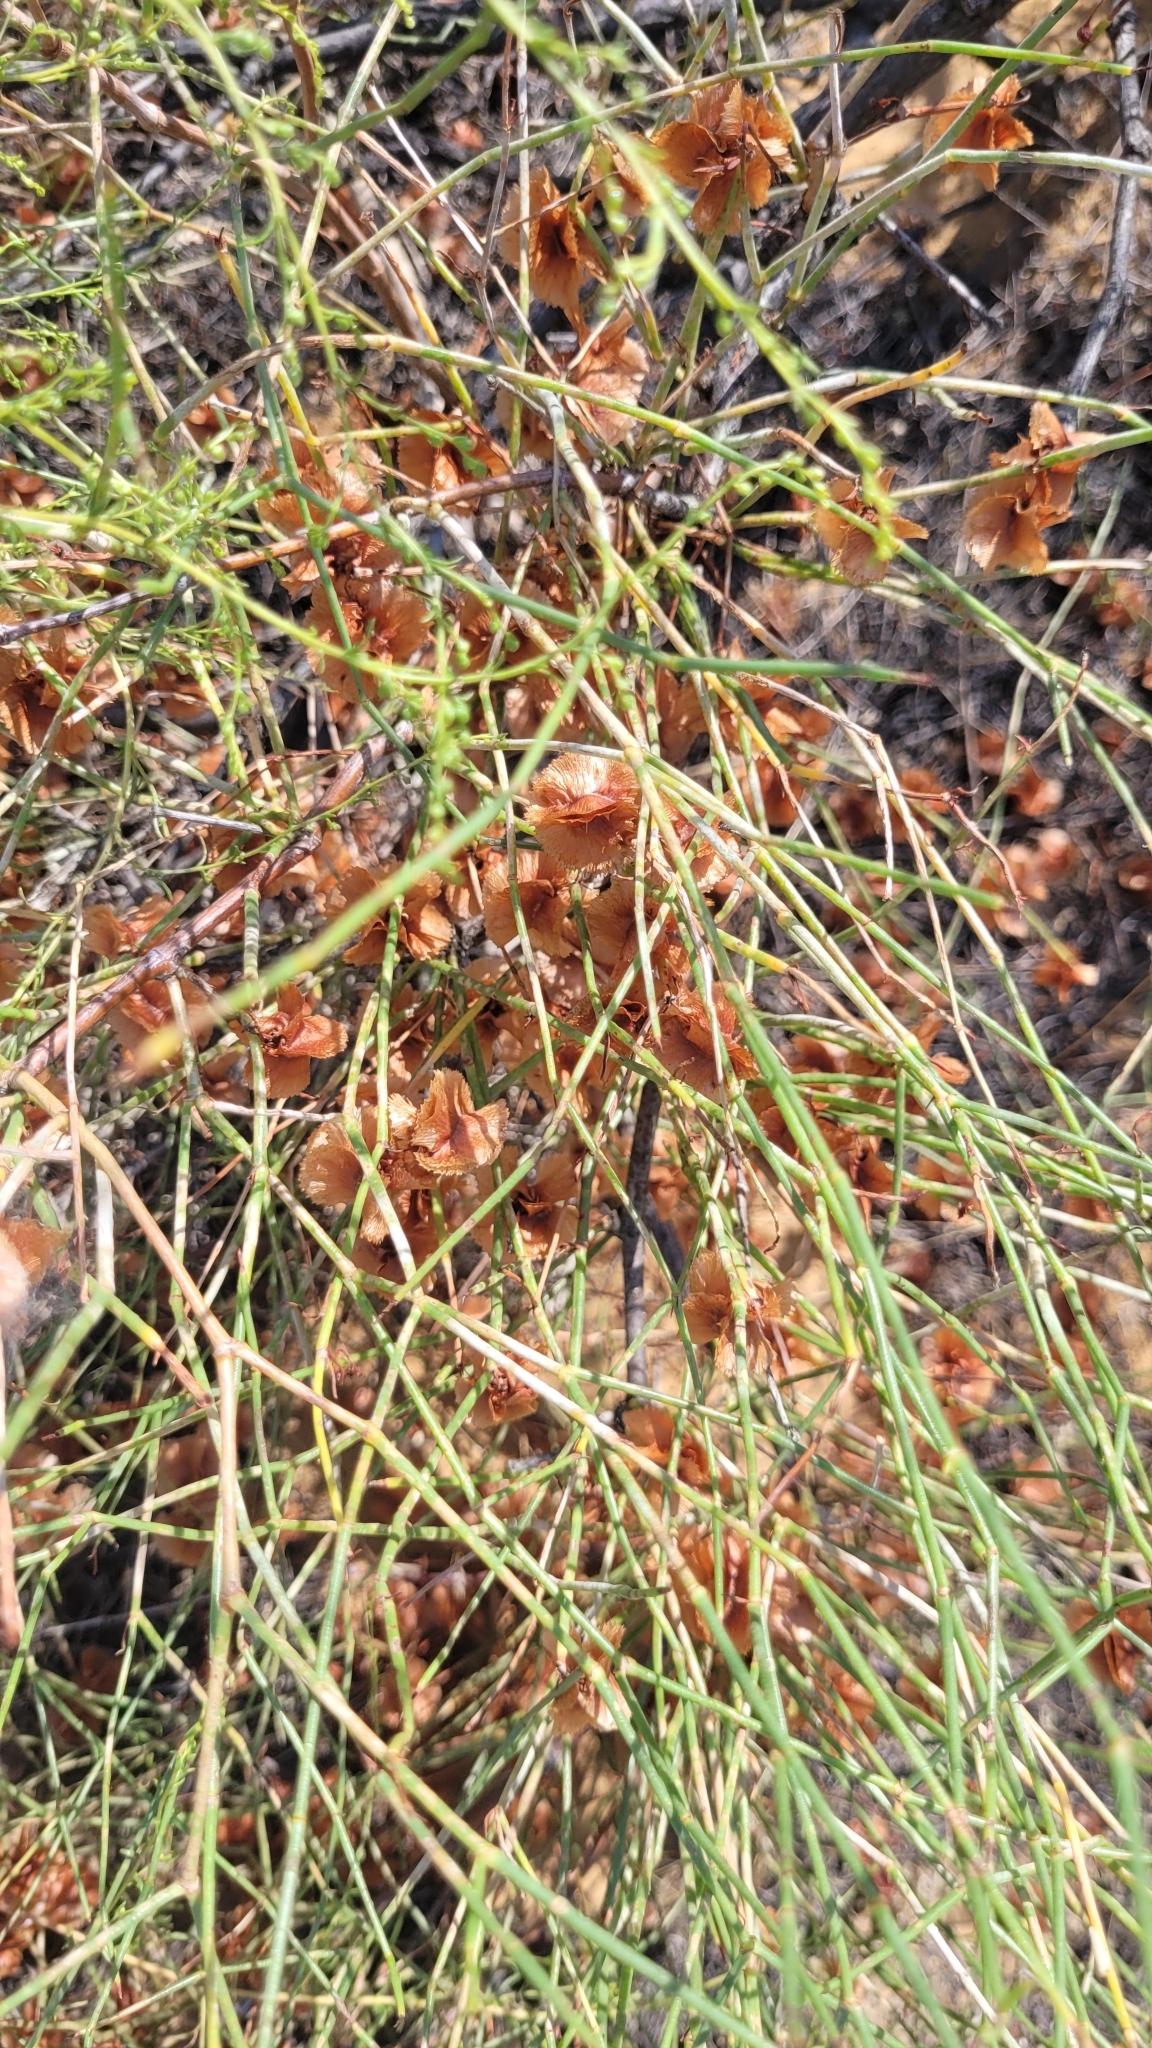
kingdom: Plantae
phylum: Tracheophyta
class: Magnoliopsida
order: Caryophyllales
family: Polygonaceae
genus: Calligonum
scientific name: Calligonum aphyllum
